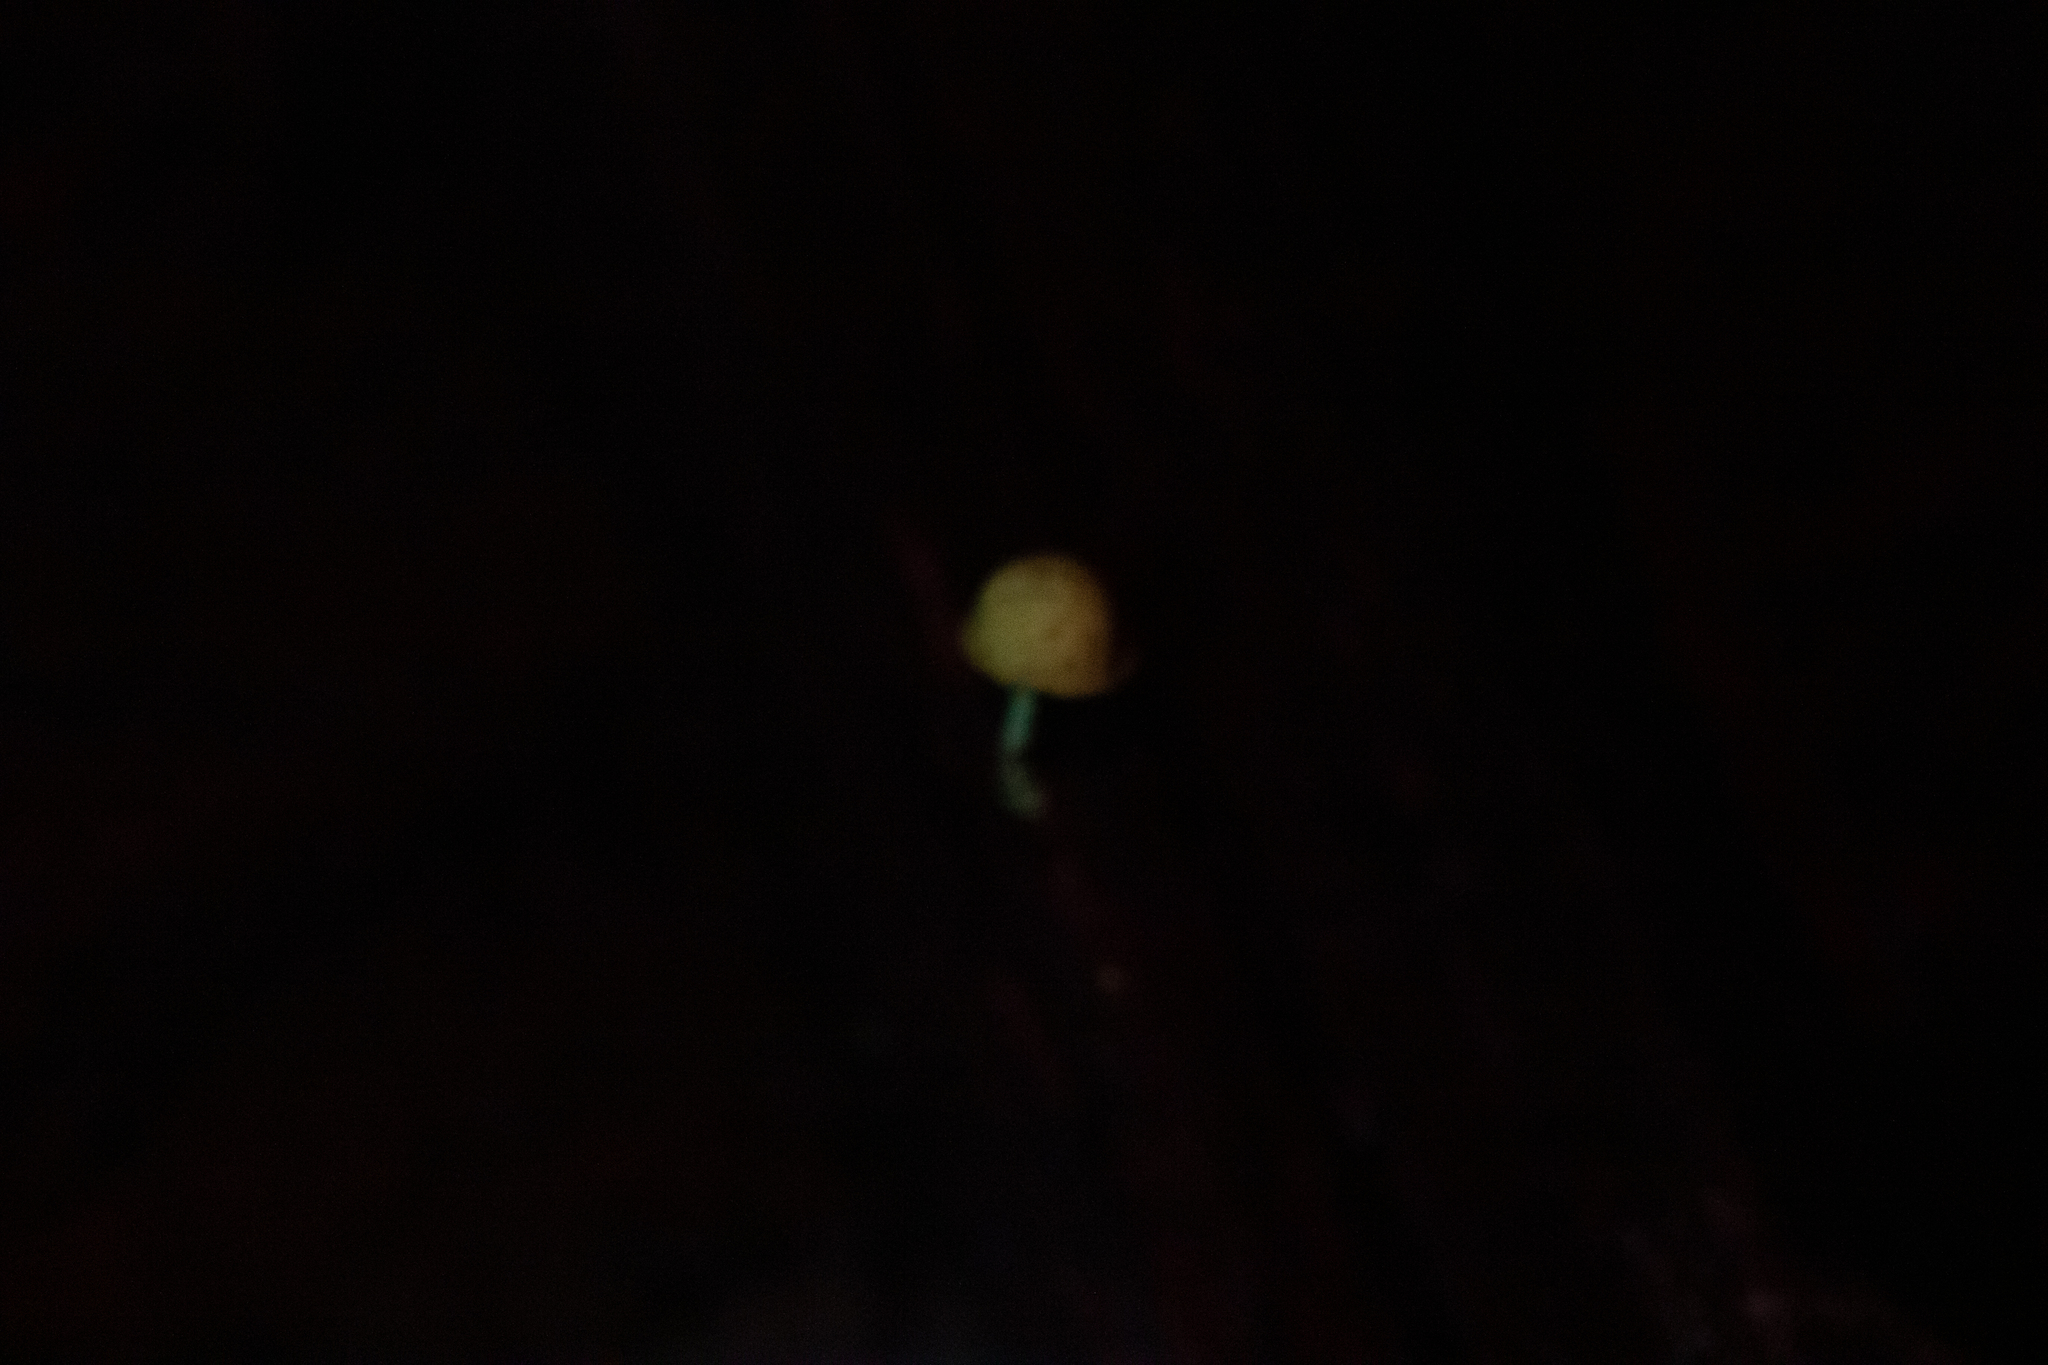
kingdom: Fungi
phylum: Basidiomycota
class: Agaricomycetes
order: Agaricales
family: Physalacriaceae
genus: Cyptotrama
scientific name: Cyptotrama chrysopepla
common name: Golden coincap
